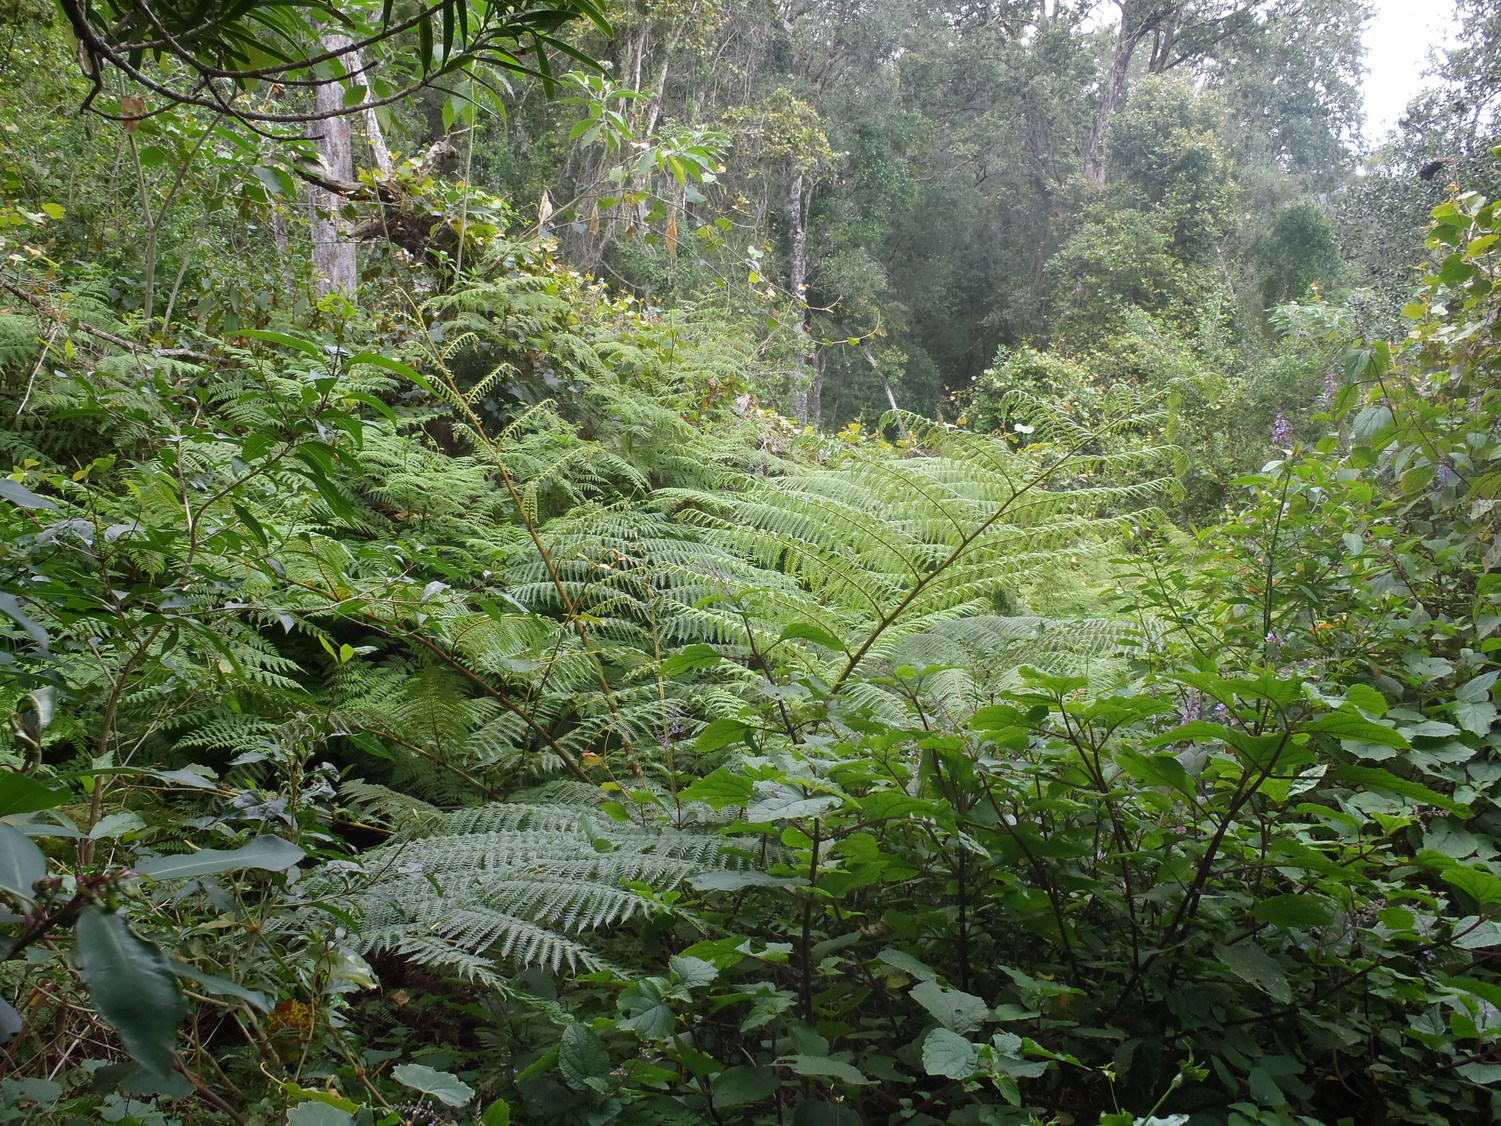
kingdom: Plantae
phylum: Tracheophyta
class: Polypodiopsida
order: Cyatheales
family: Cyatheaceae
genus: Sphaeropteris
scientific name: Sphaeropteris cooperi
